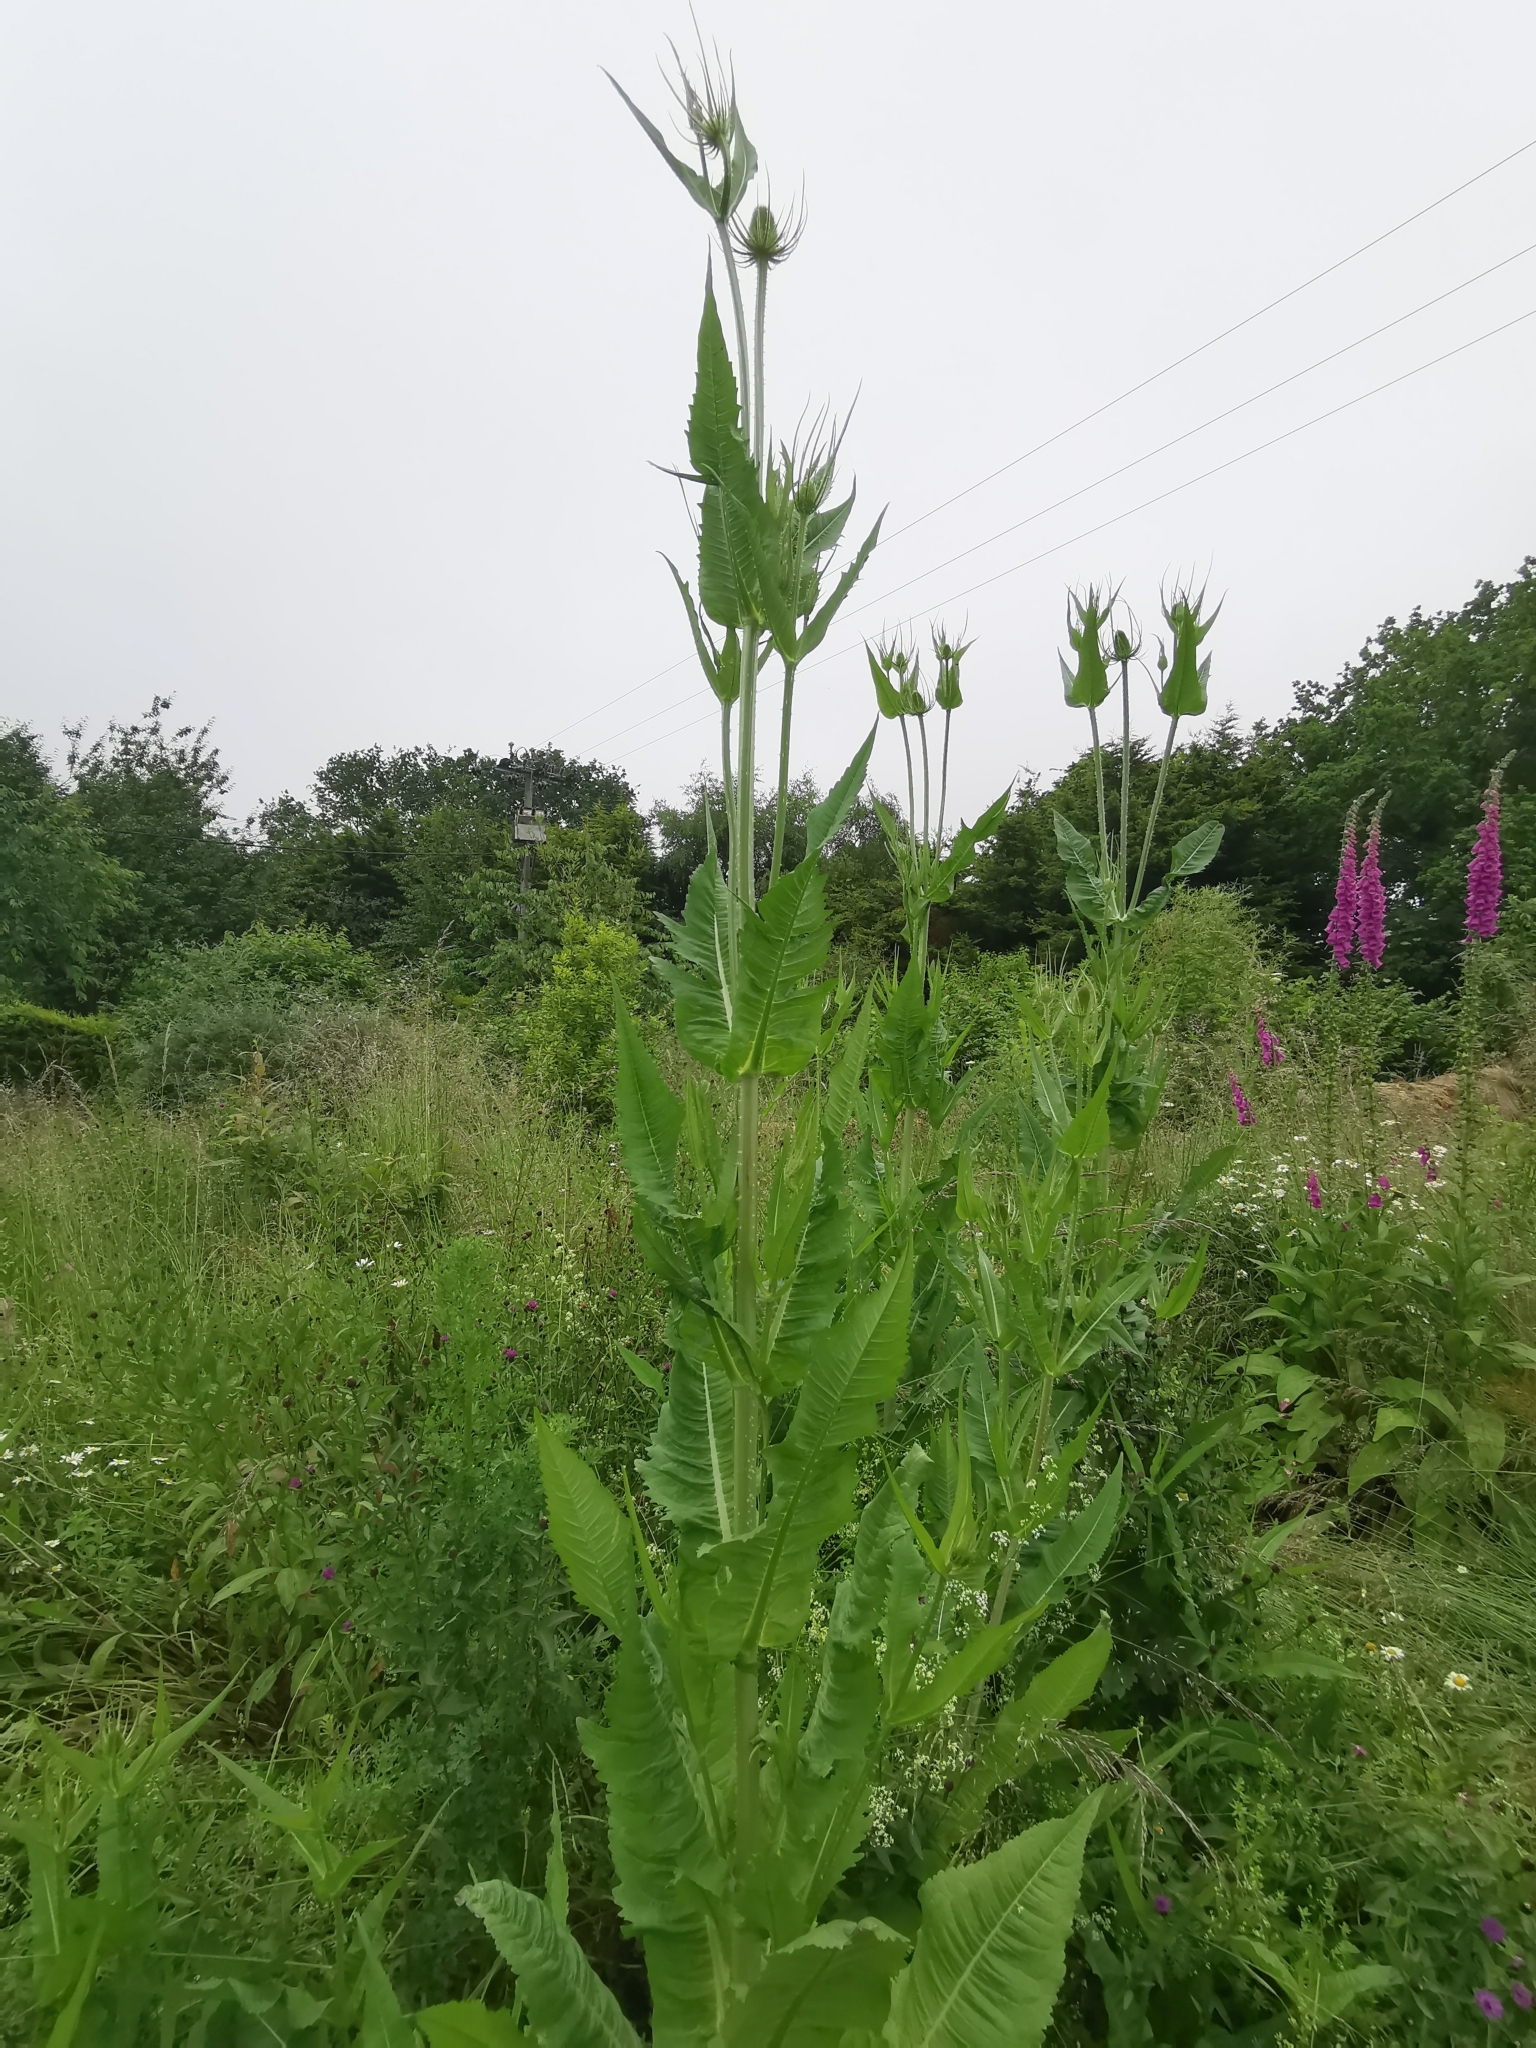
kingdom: Plantae
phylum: Tracheophyta
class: Magnoliopsida
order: Dipsacales
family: Caprifoliaceae
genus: Dipsacus
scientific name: Dipsacus fullonum
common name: Teasel
